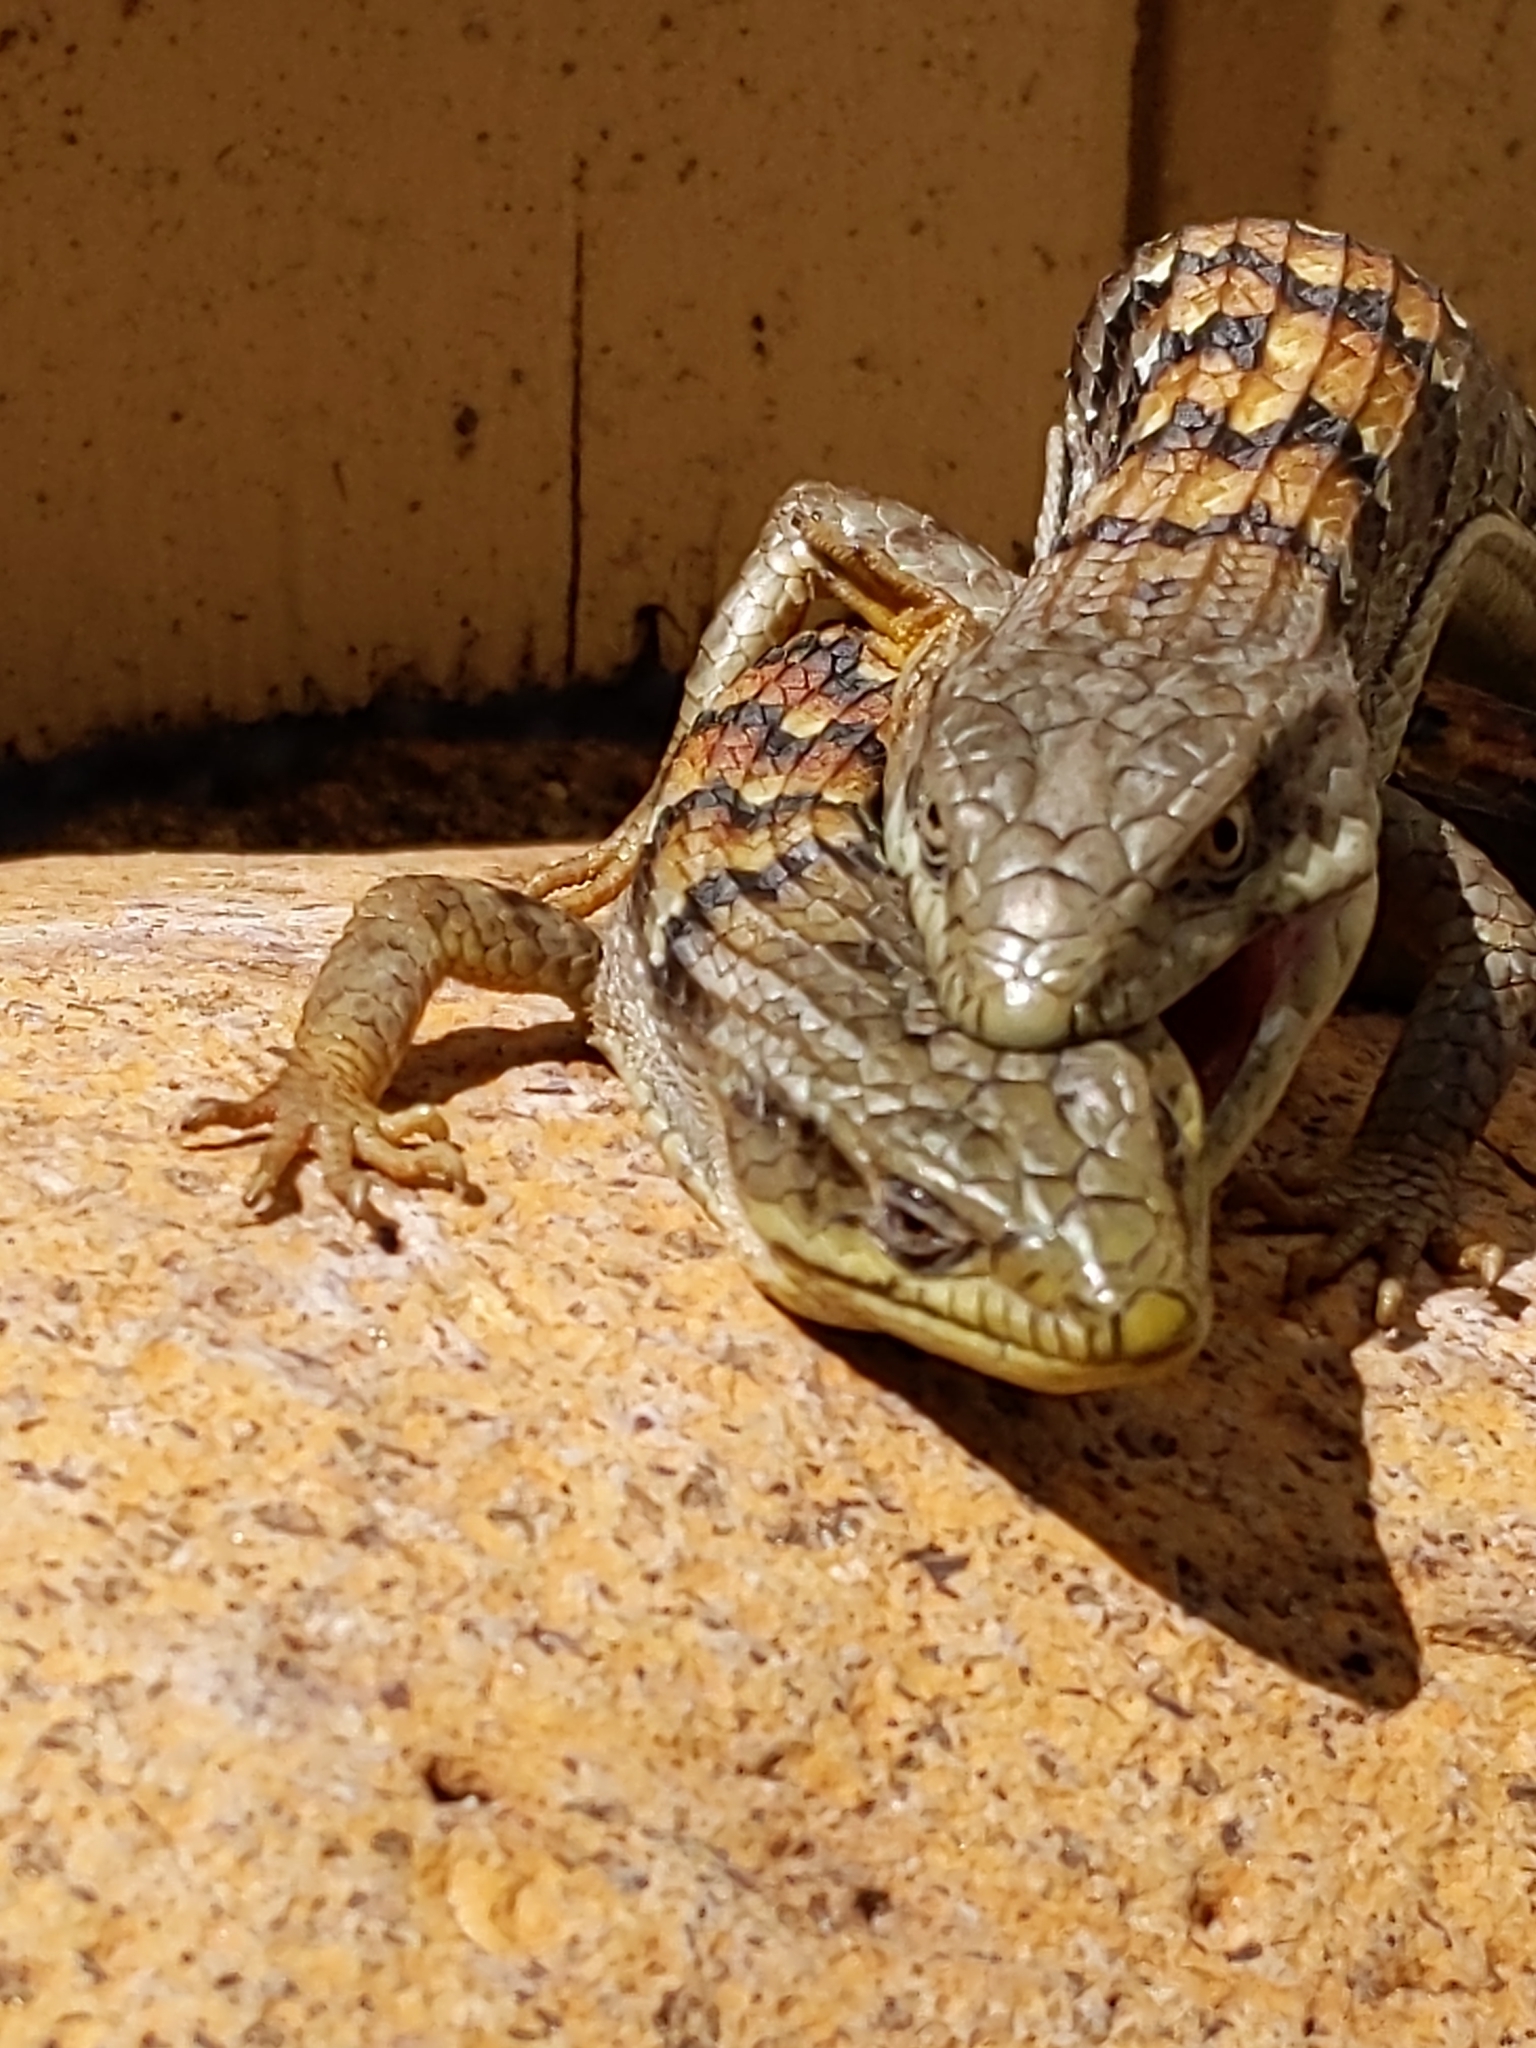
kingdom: Animalia
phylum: Chordata
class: Squamata
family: Anguidae
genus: Elgaria
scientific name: Elgaria multicarinata
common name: Southern alligator lizard
